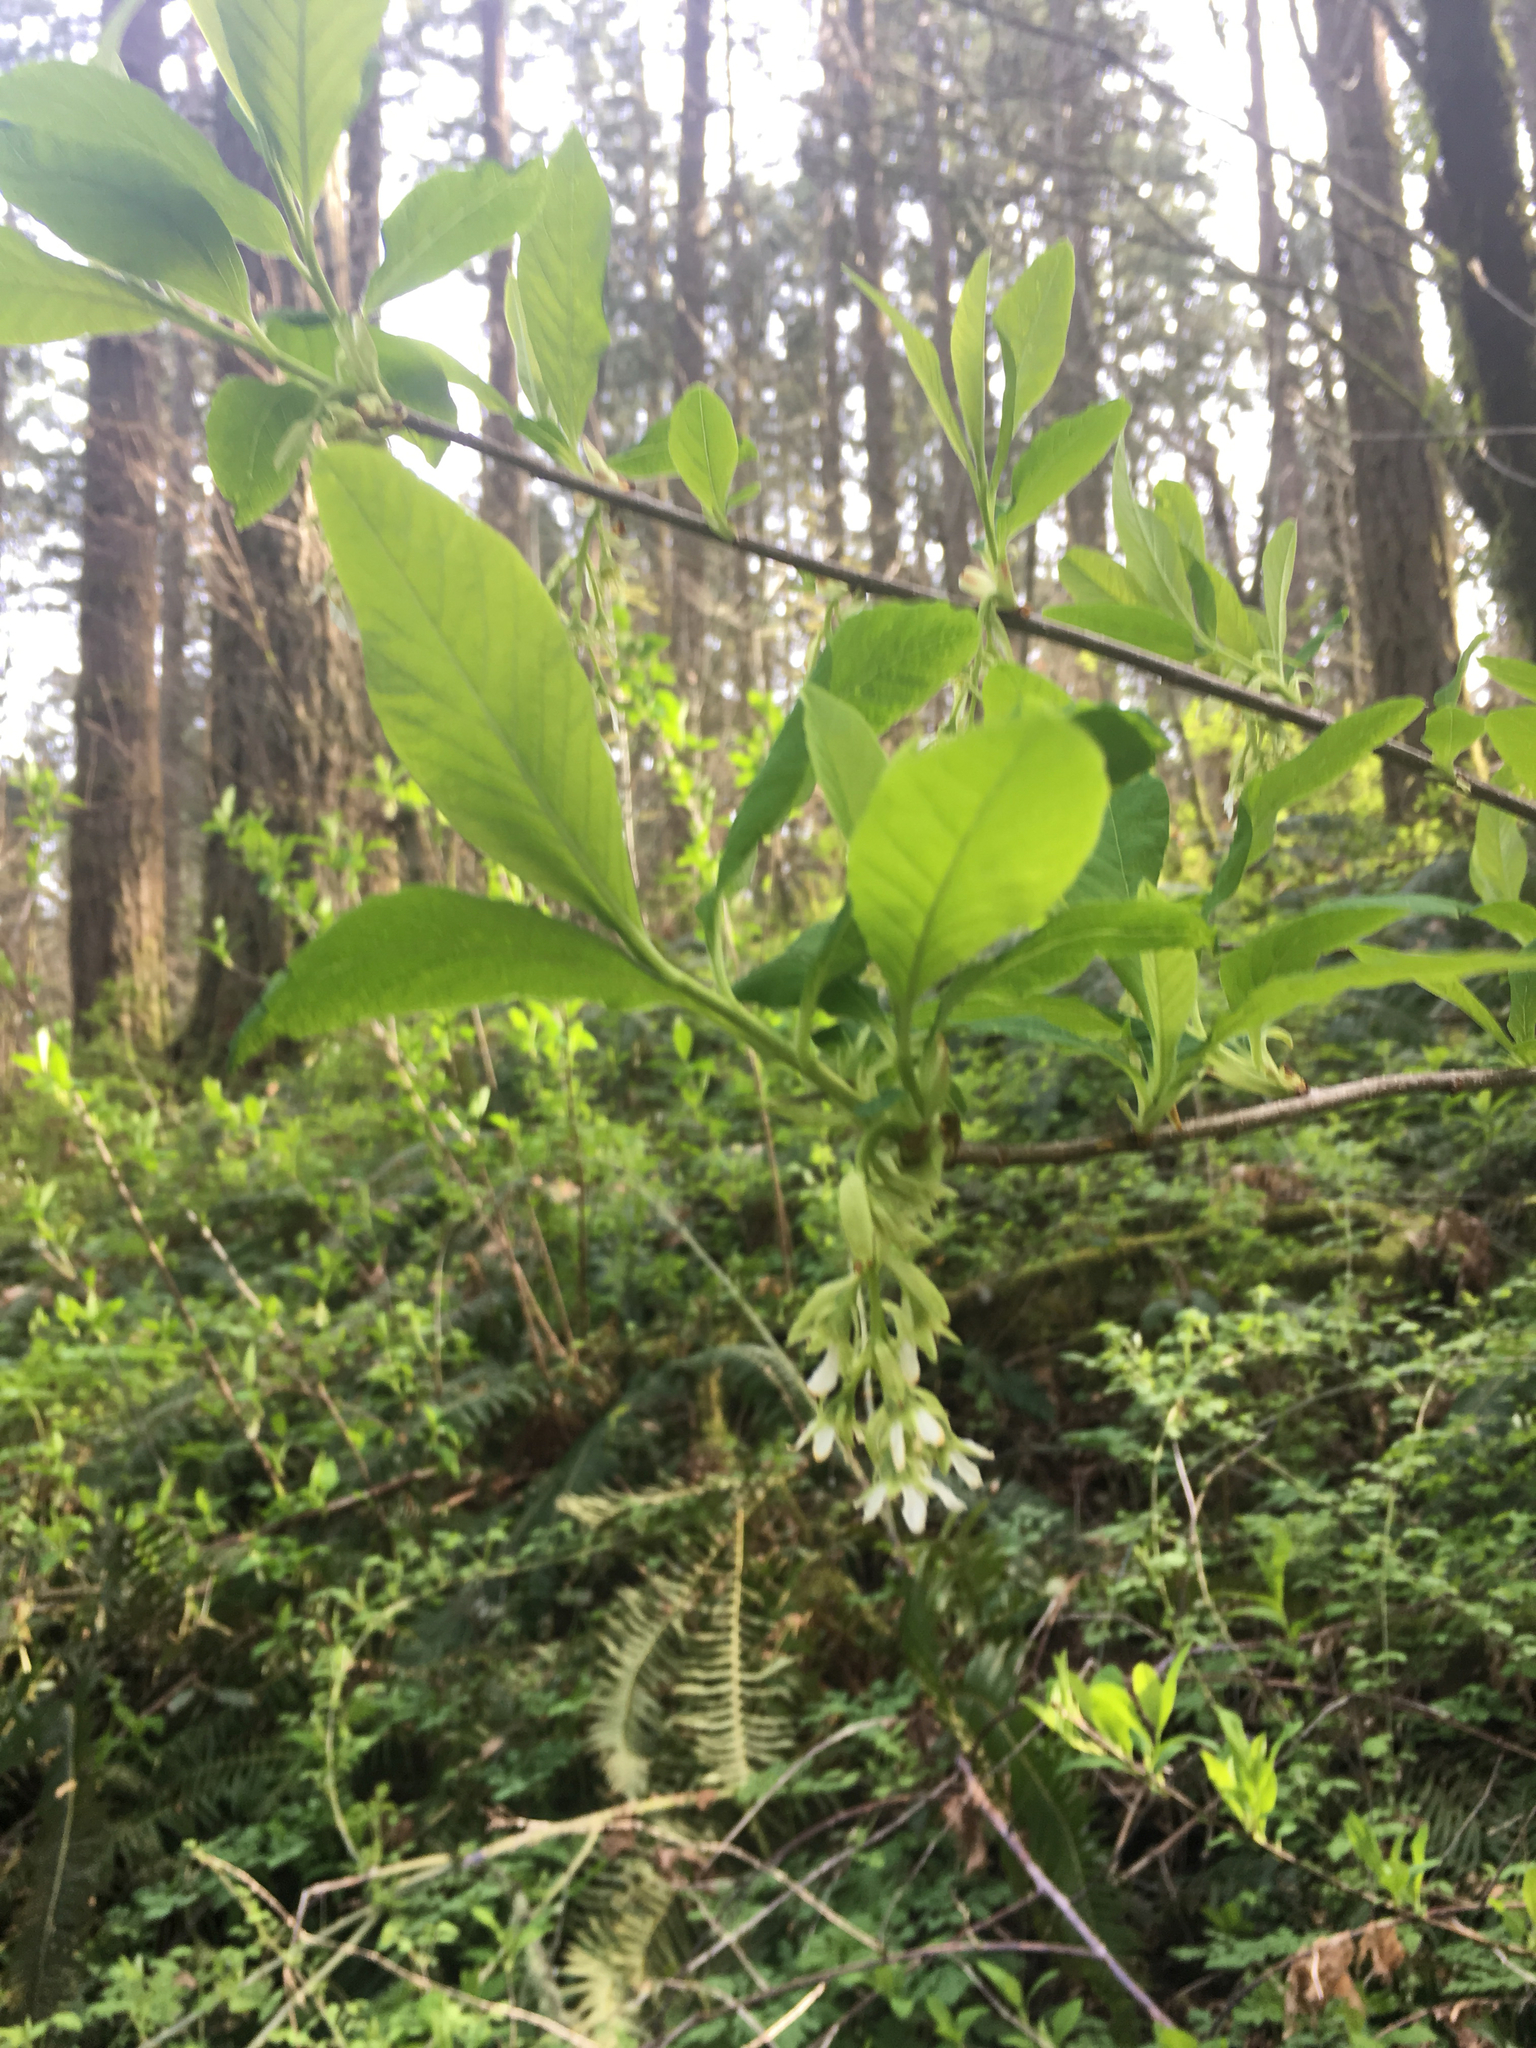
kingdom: Plantae
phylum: Tracheophyta
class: Magnoliopsida
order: Rosales
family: Rosaceae
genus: Oemleria
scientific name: Oemleria cerasiformis
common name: Osoberry
